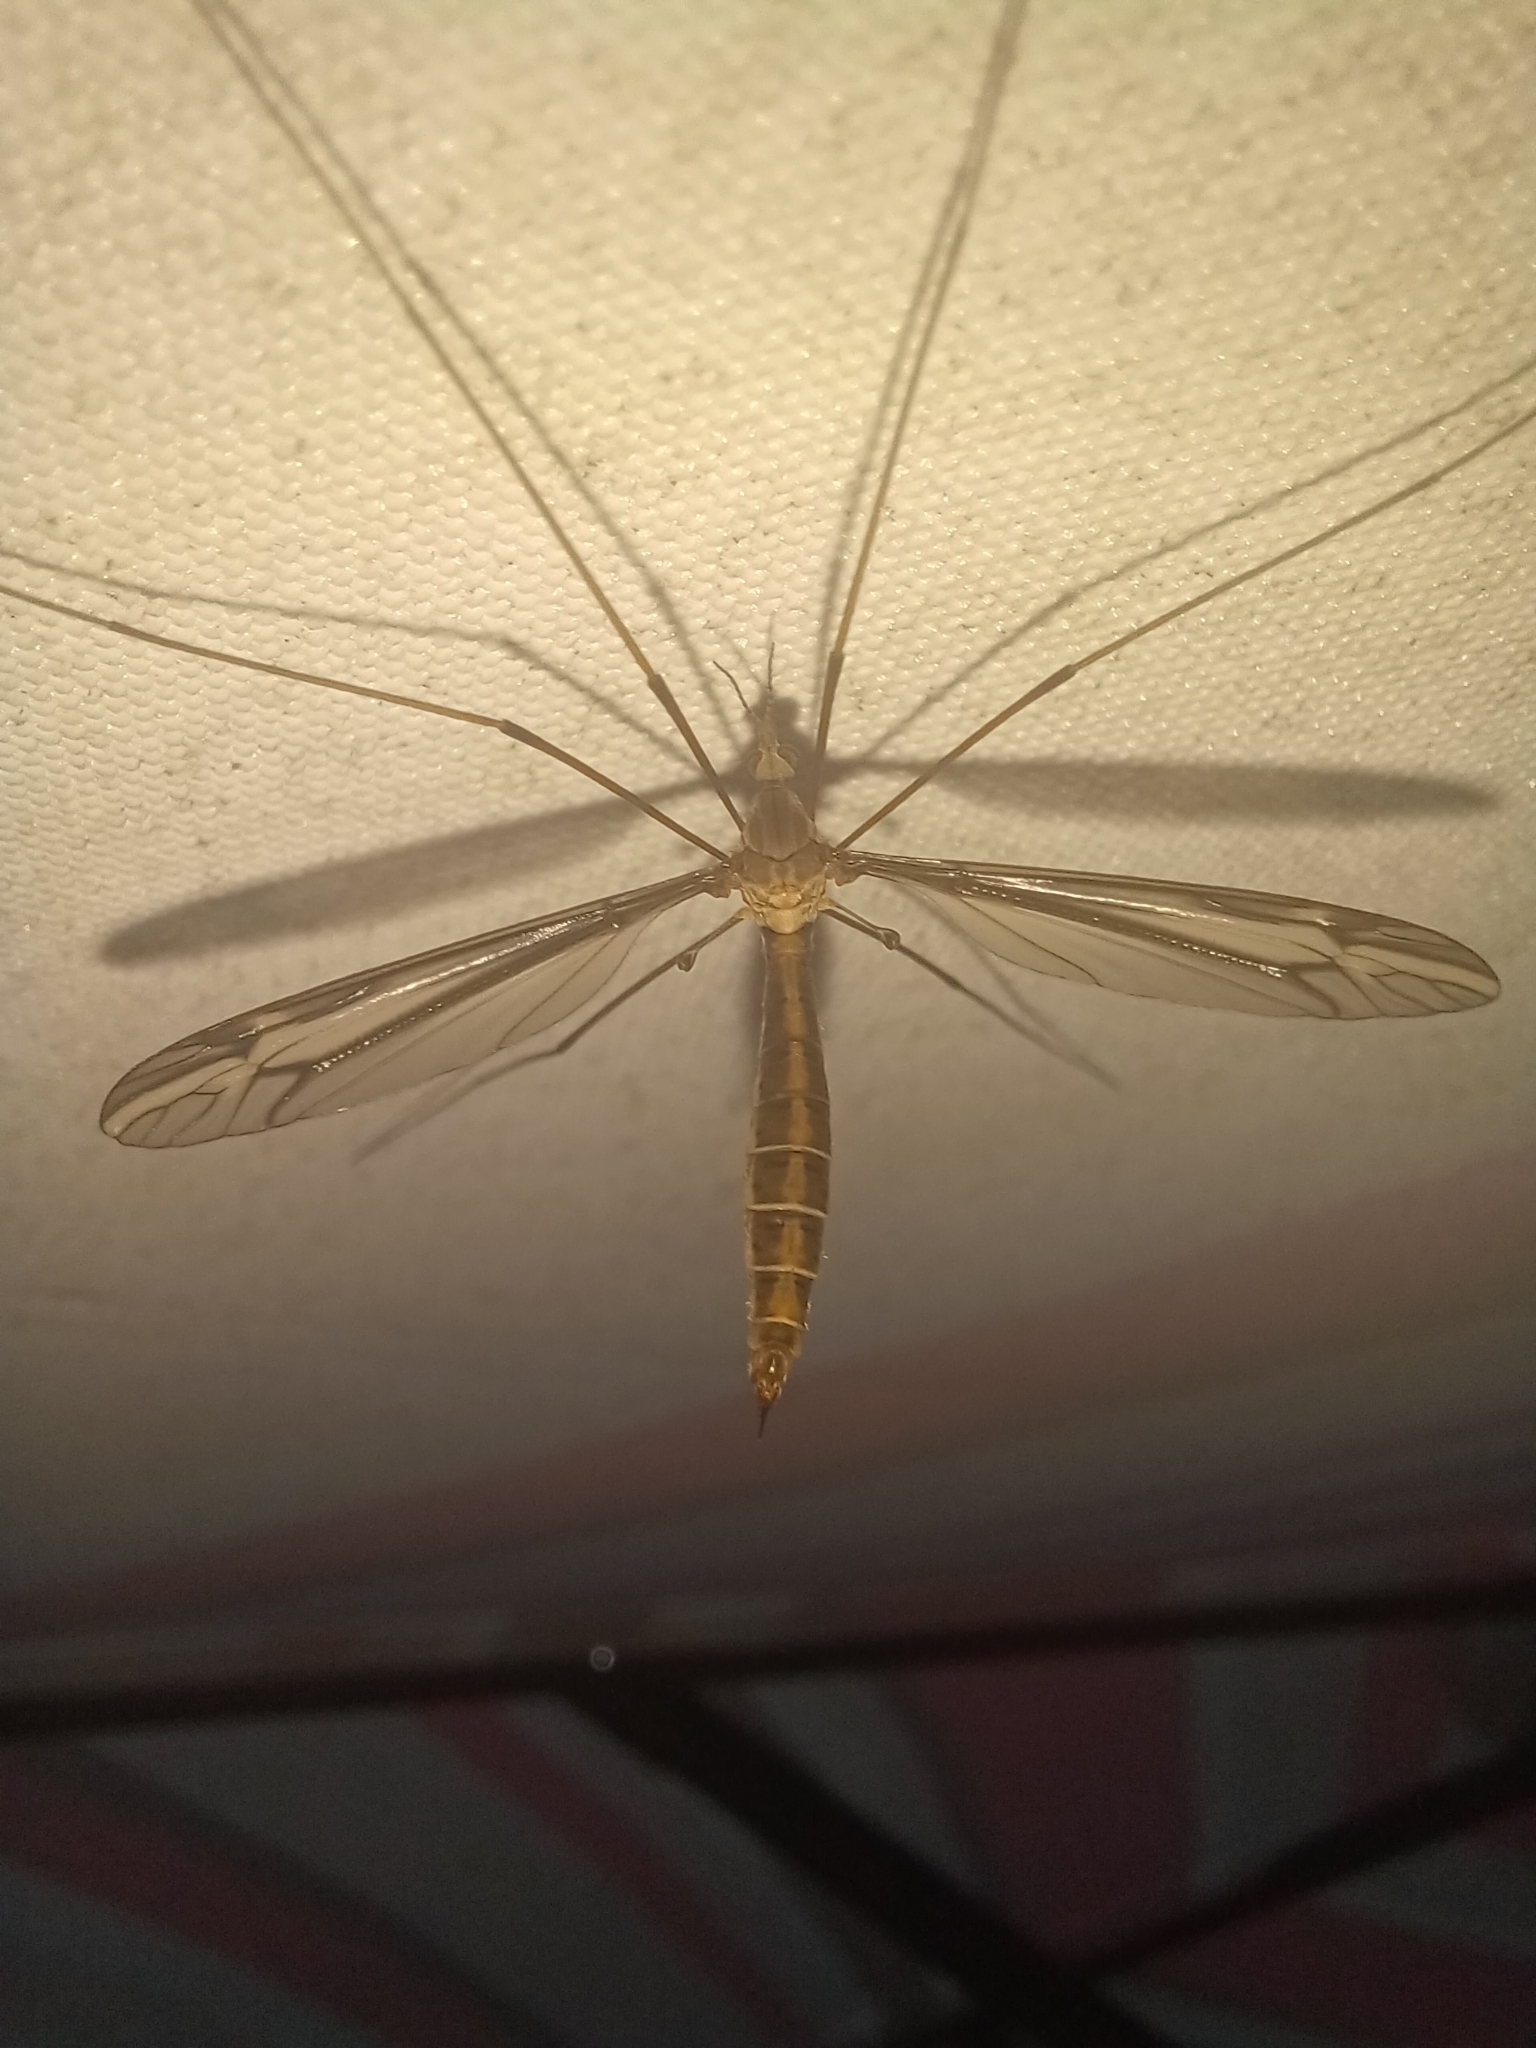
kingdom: Animalia
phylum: Arthropoda
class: Insecta
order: Diptera
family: Tipulidae
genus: Tipula
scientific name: Tipula furca
